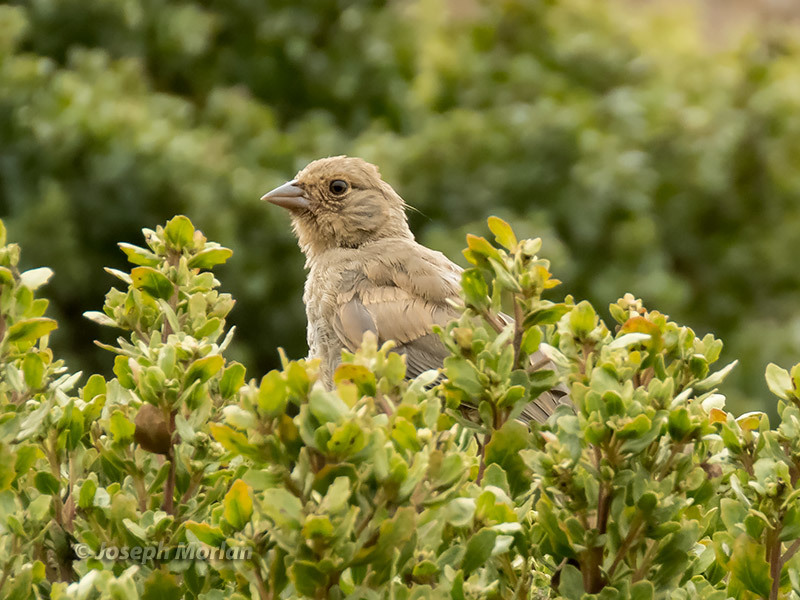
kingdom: Animalia
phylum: Chordata
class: Aves
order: Passeriformes
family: Passerellidae
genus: Melozone
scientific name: Melozone crissalis
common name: California towhee
